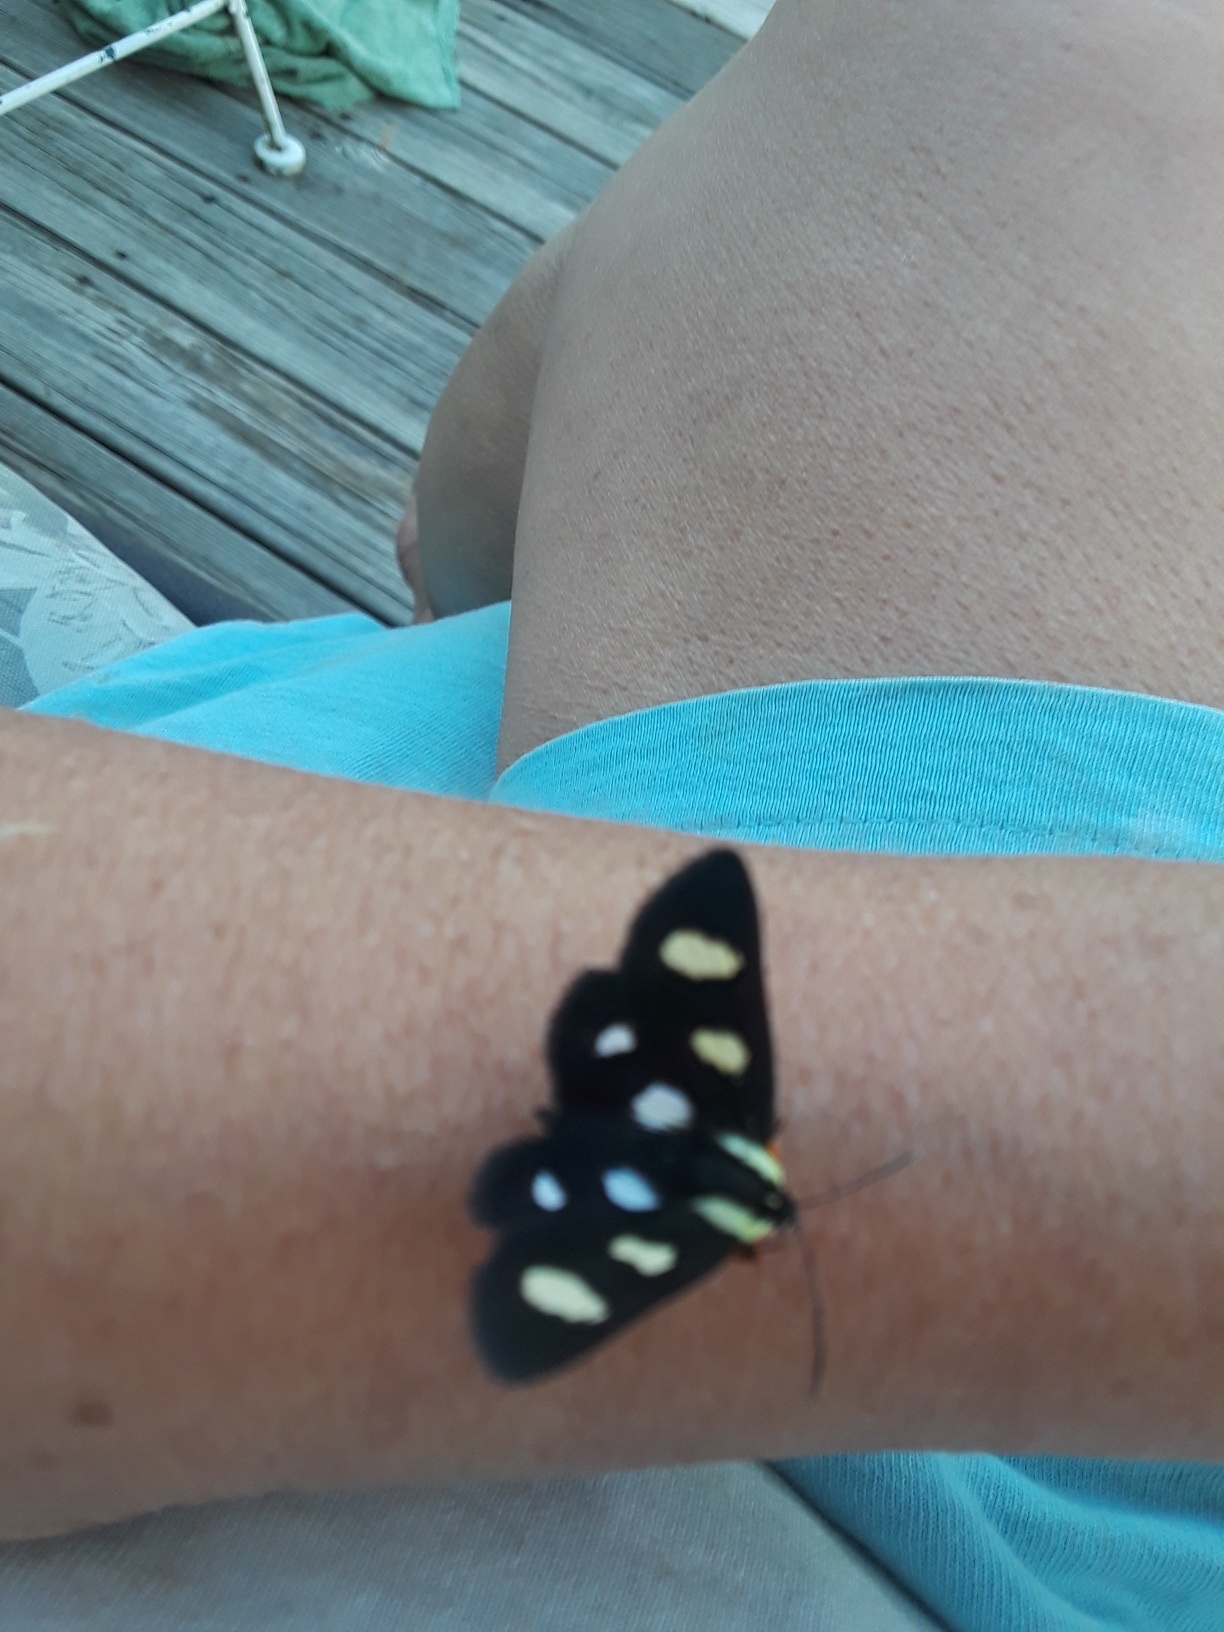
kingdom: Animalia
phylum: Arthropoda
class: Insecta
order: Lepidoptera
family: Noctuidae
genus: Alypia
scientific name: Alypia octomaculata
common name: Eight-spotted forester
